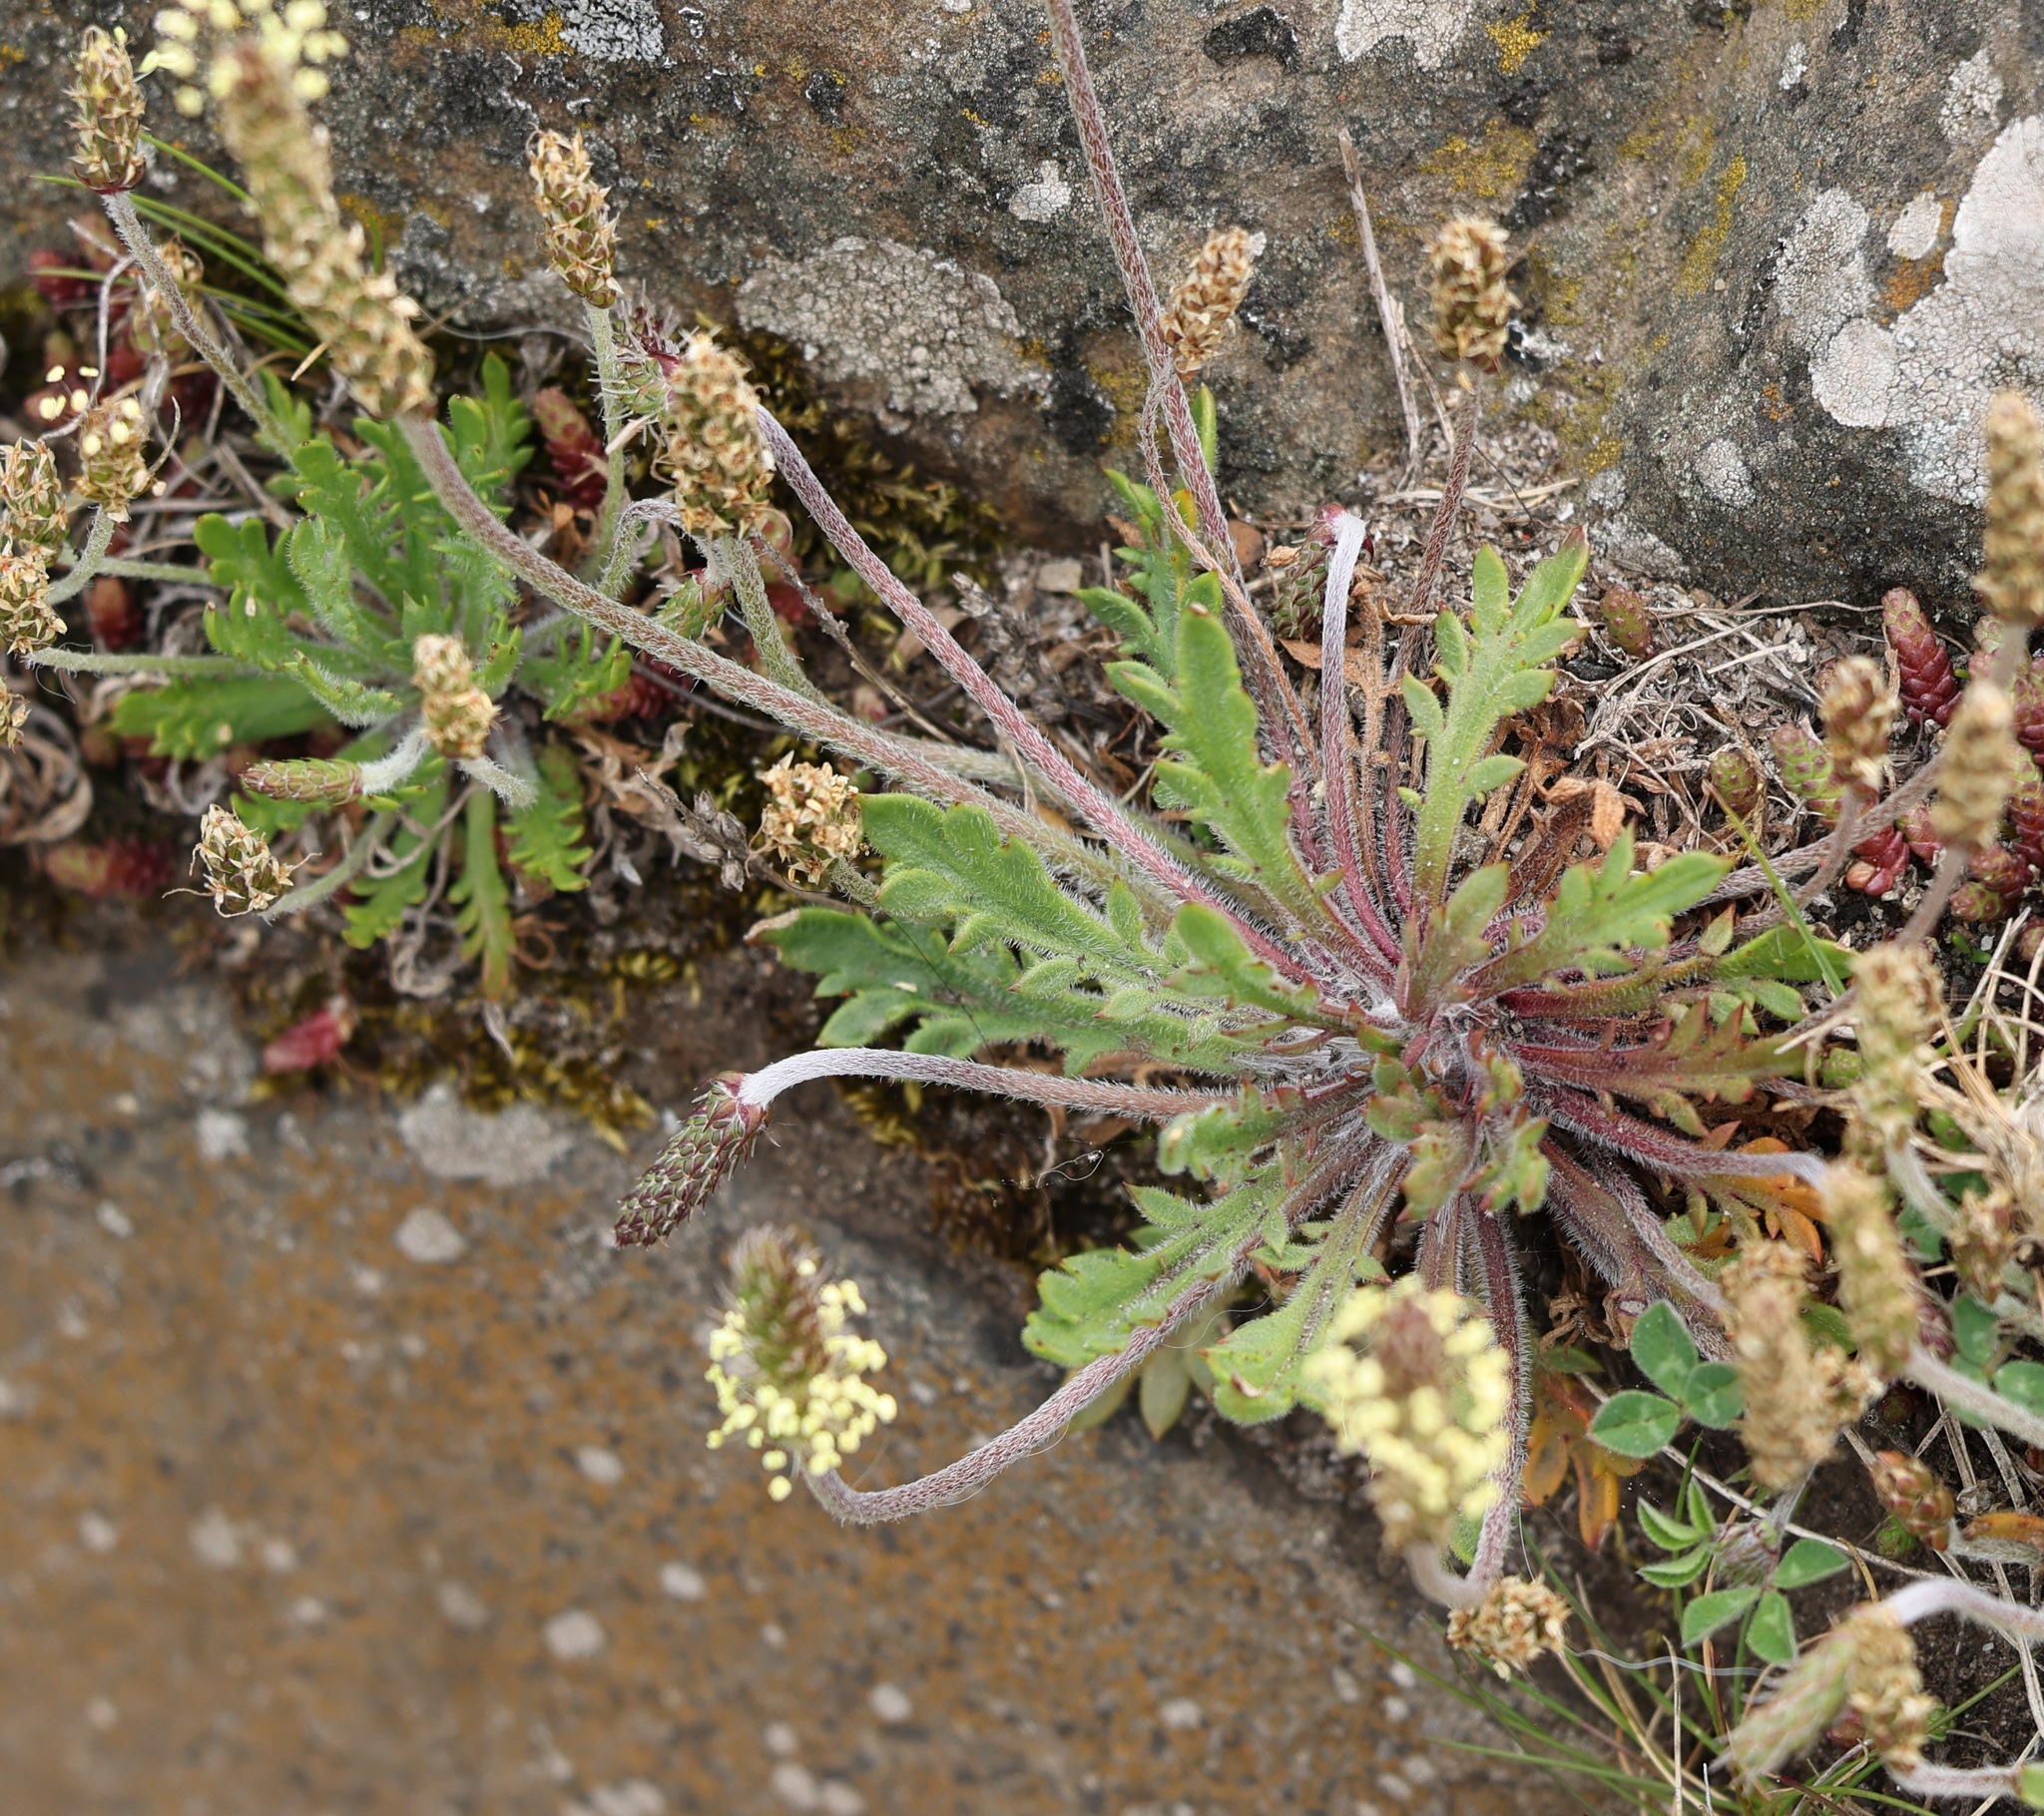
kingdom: Plantae
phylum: Tracheophyta
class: Magnoliopsida
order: Lamiales
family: Plantaginaceae
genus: Plantago
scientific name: Plantago coronopus
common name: Buck's-horn plantain
